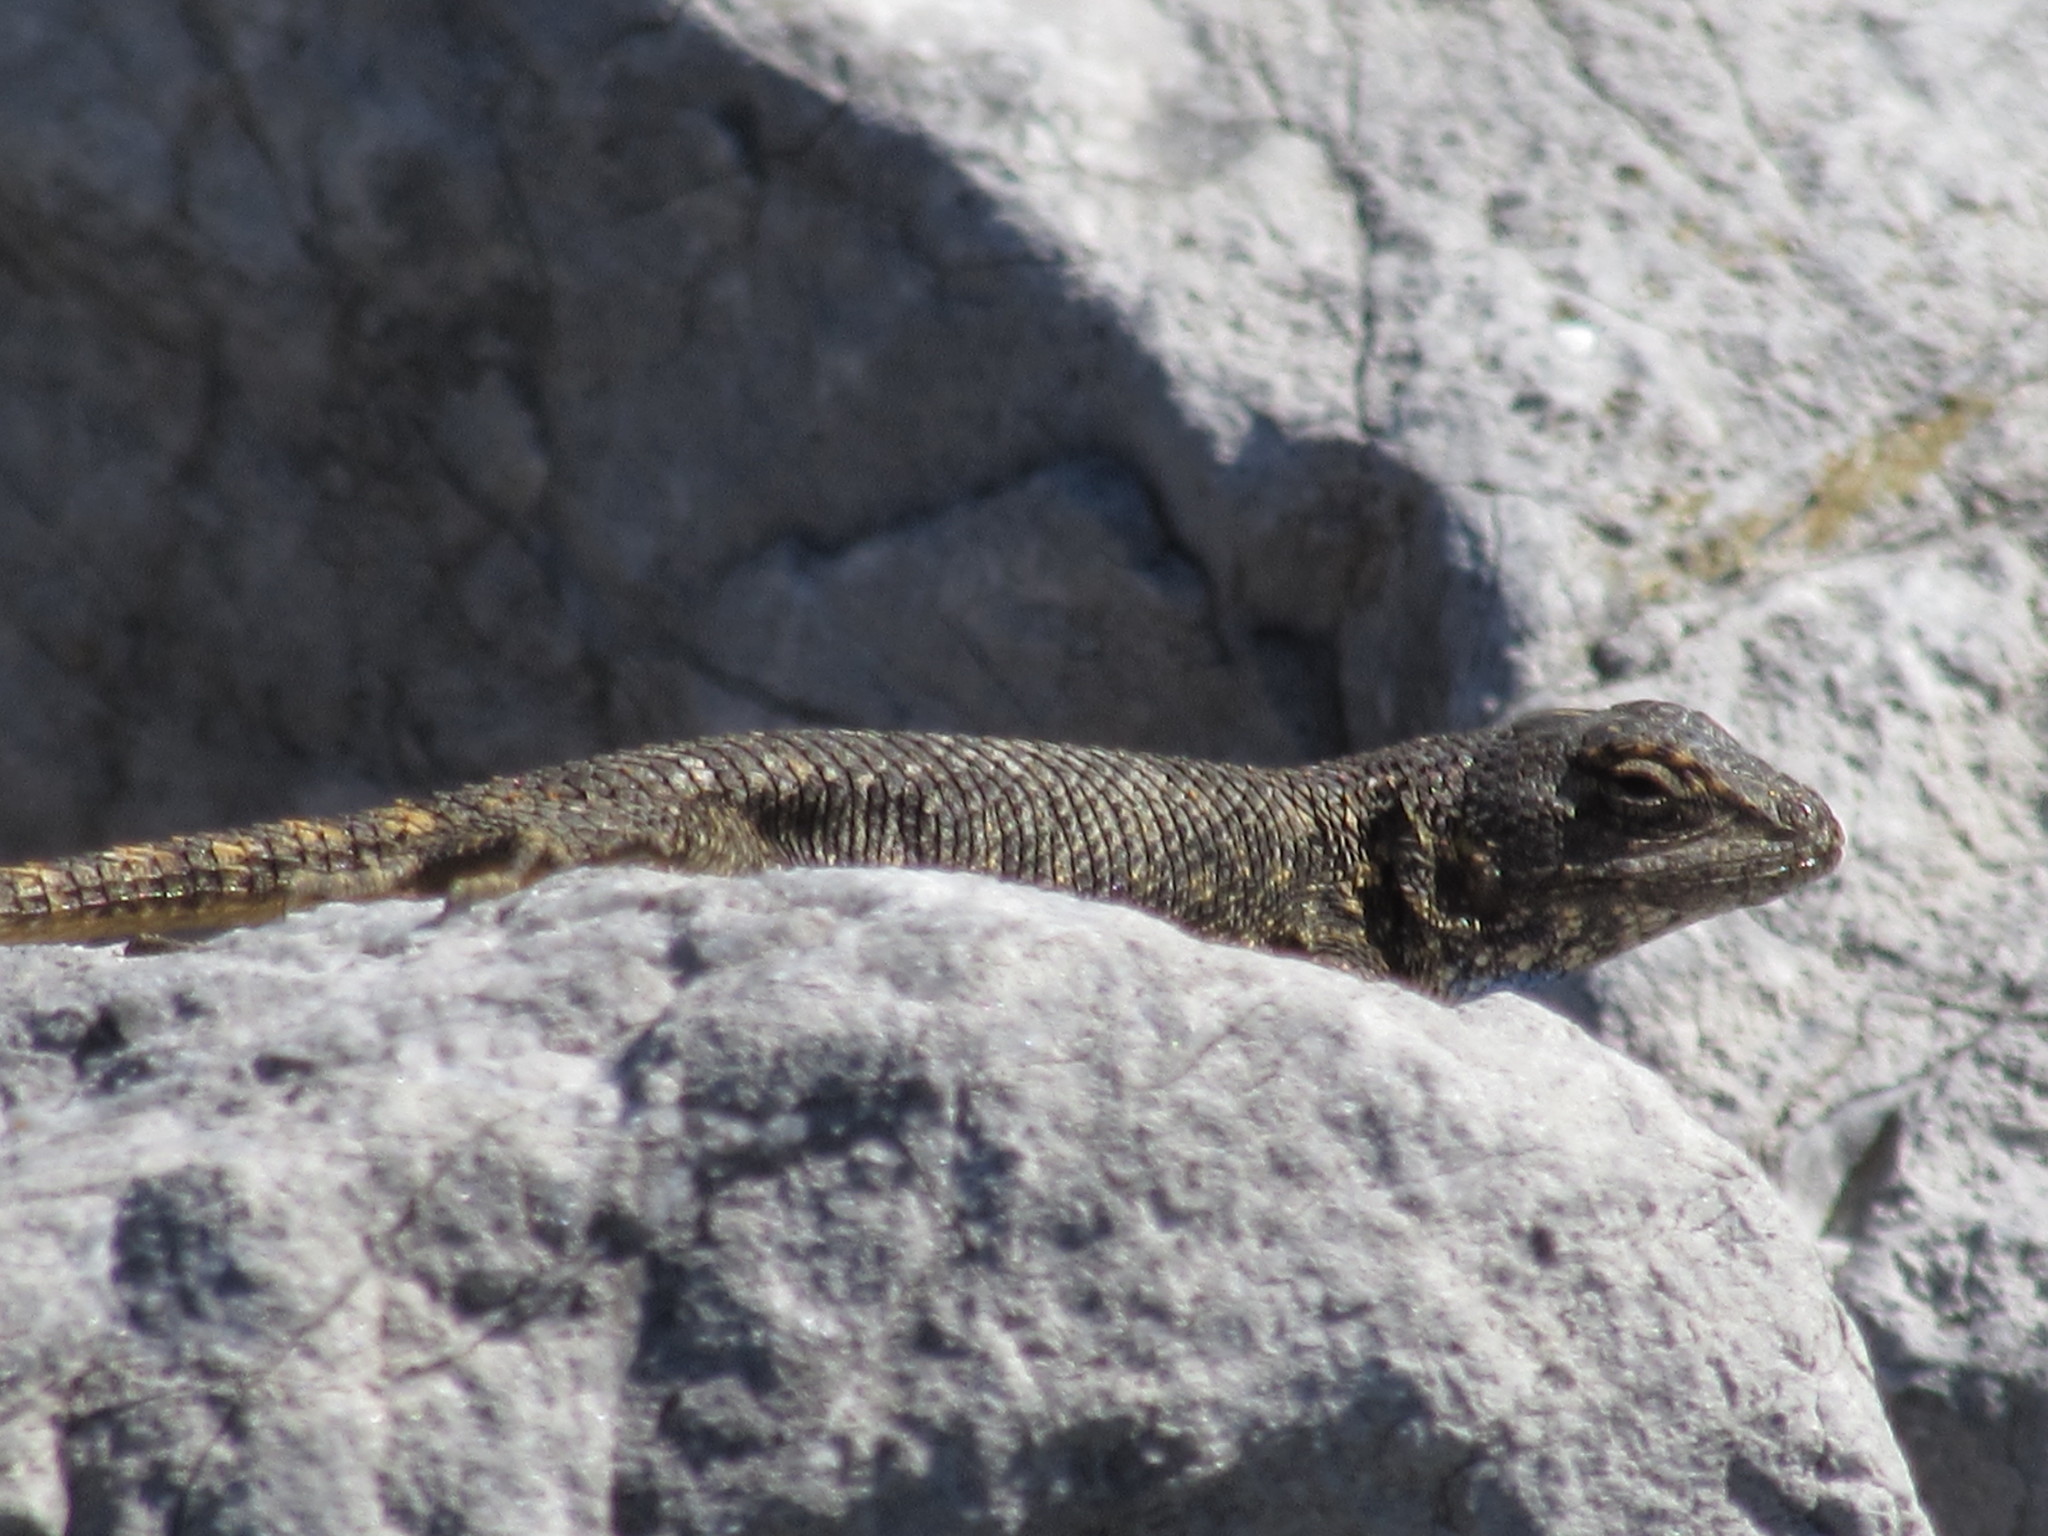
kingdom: Animalia
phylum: Chordata
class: Squamata
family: Phrynosomatidae
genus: Sceloporus
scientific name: Sceloporus occidentalis
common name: Western fence lizard
